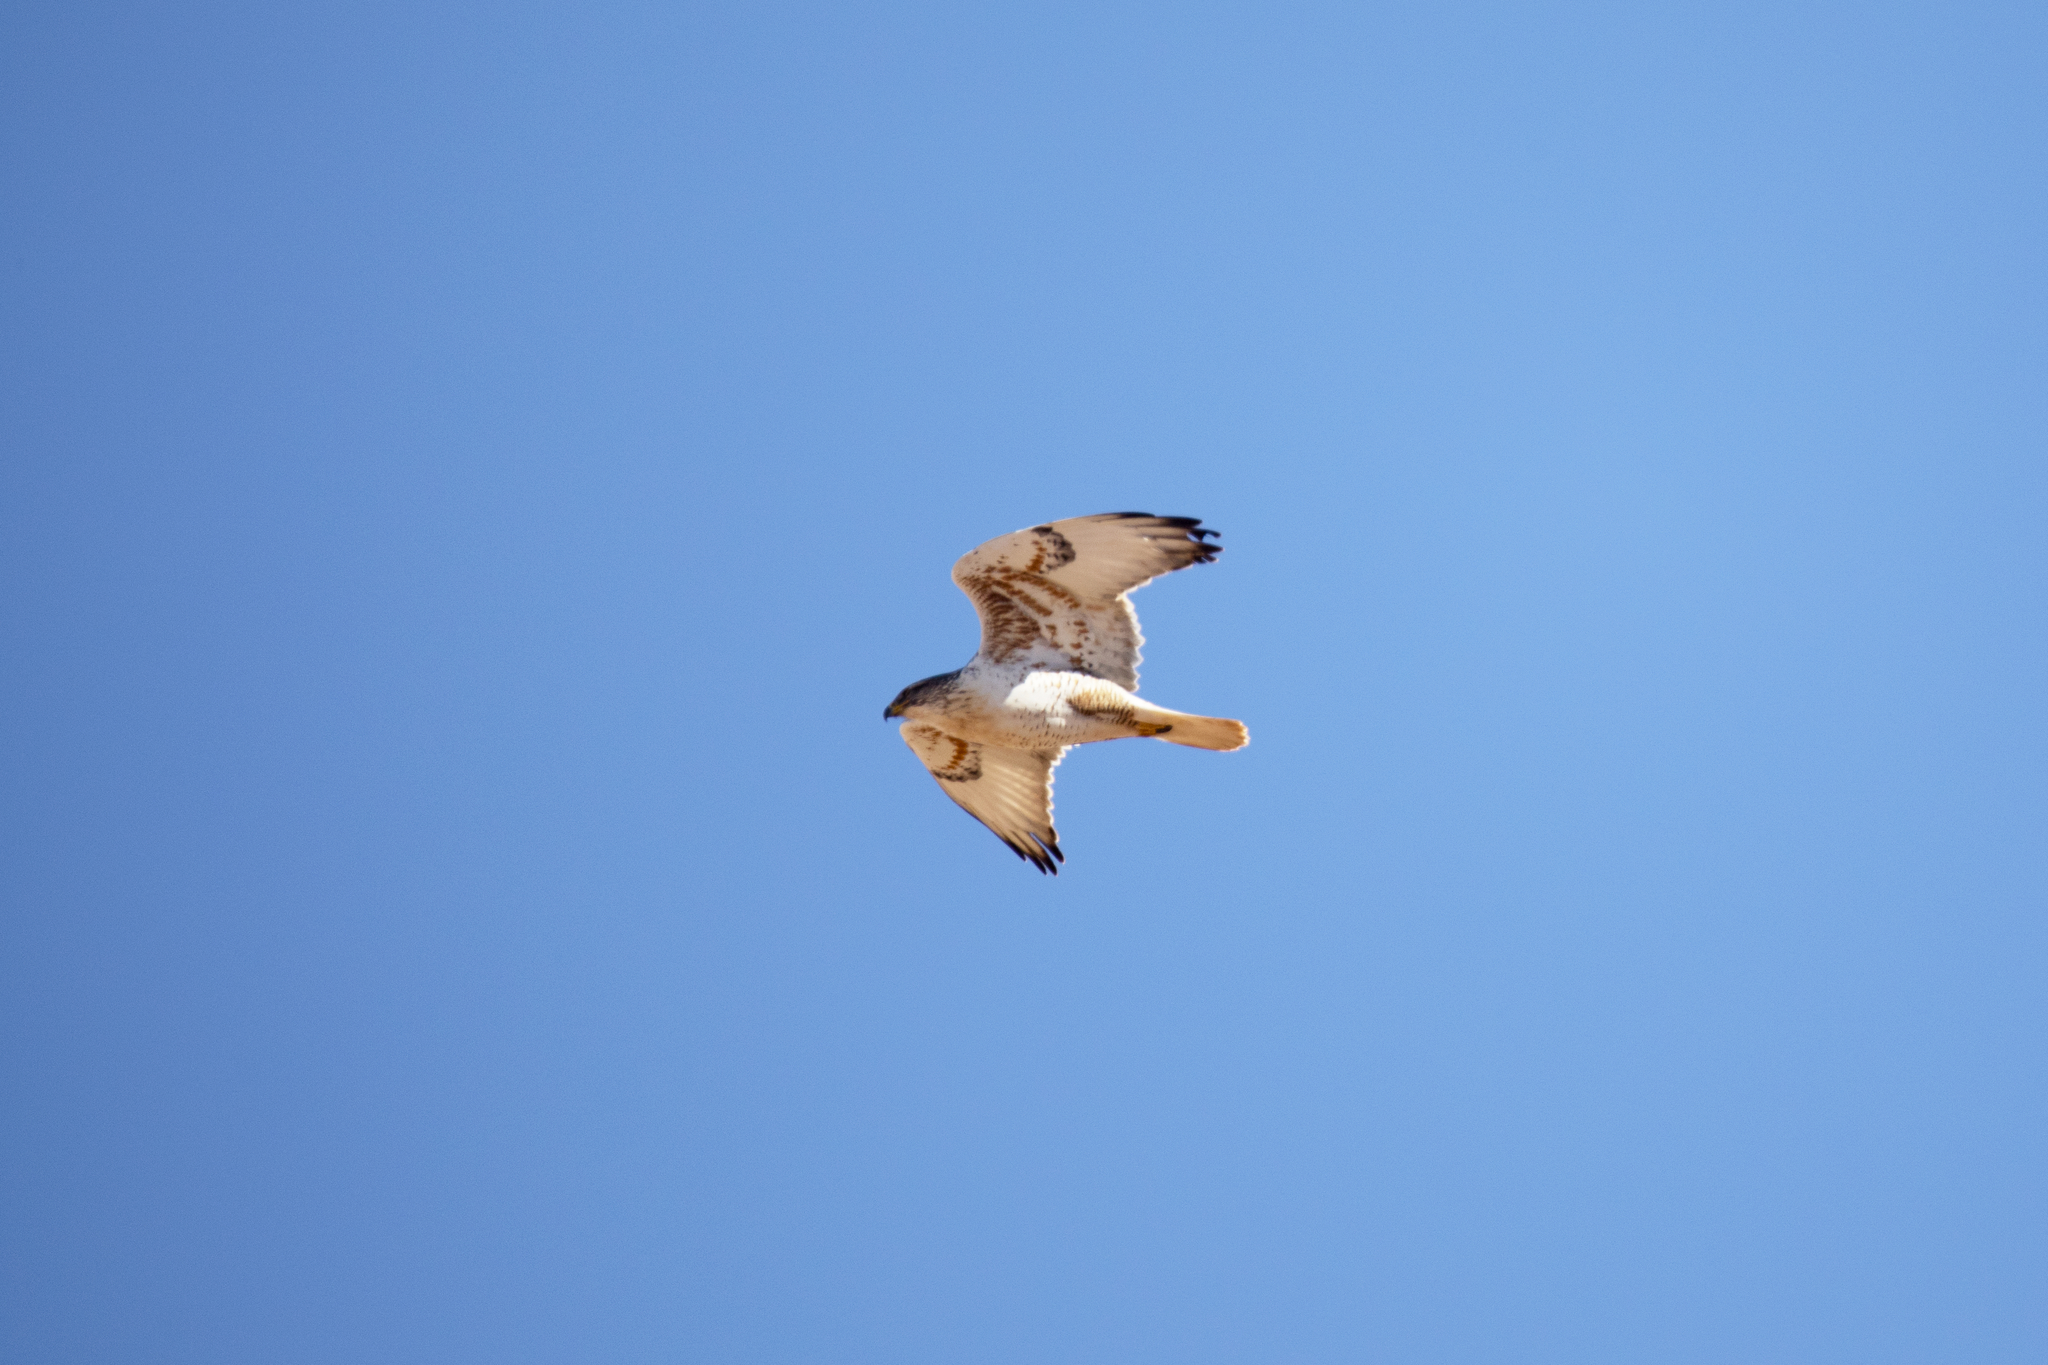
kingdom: Animalia
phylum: Chordata
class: Aves
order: Accipitriformes
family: Accipitridae
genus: Buteo
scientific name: Buteo regalis
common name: Ferruginous hawk
